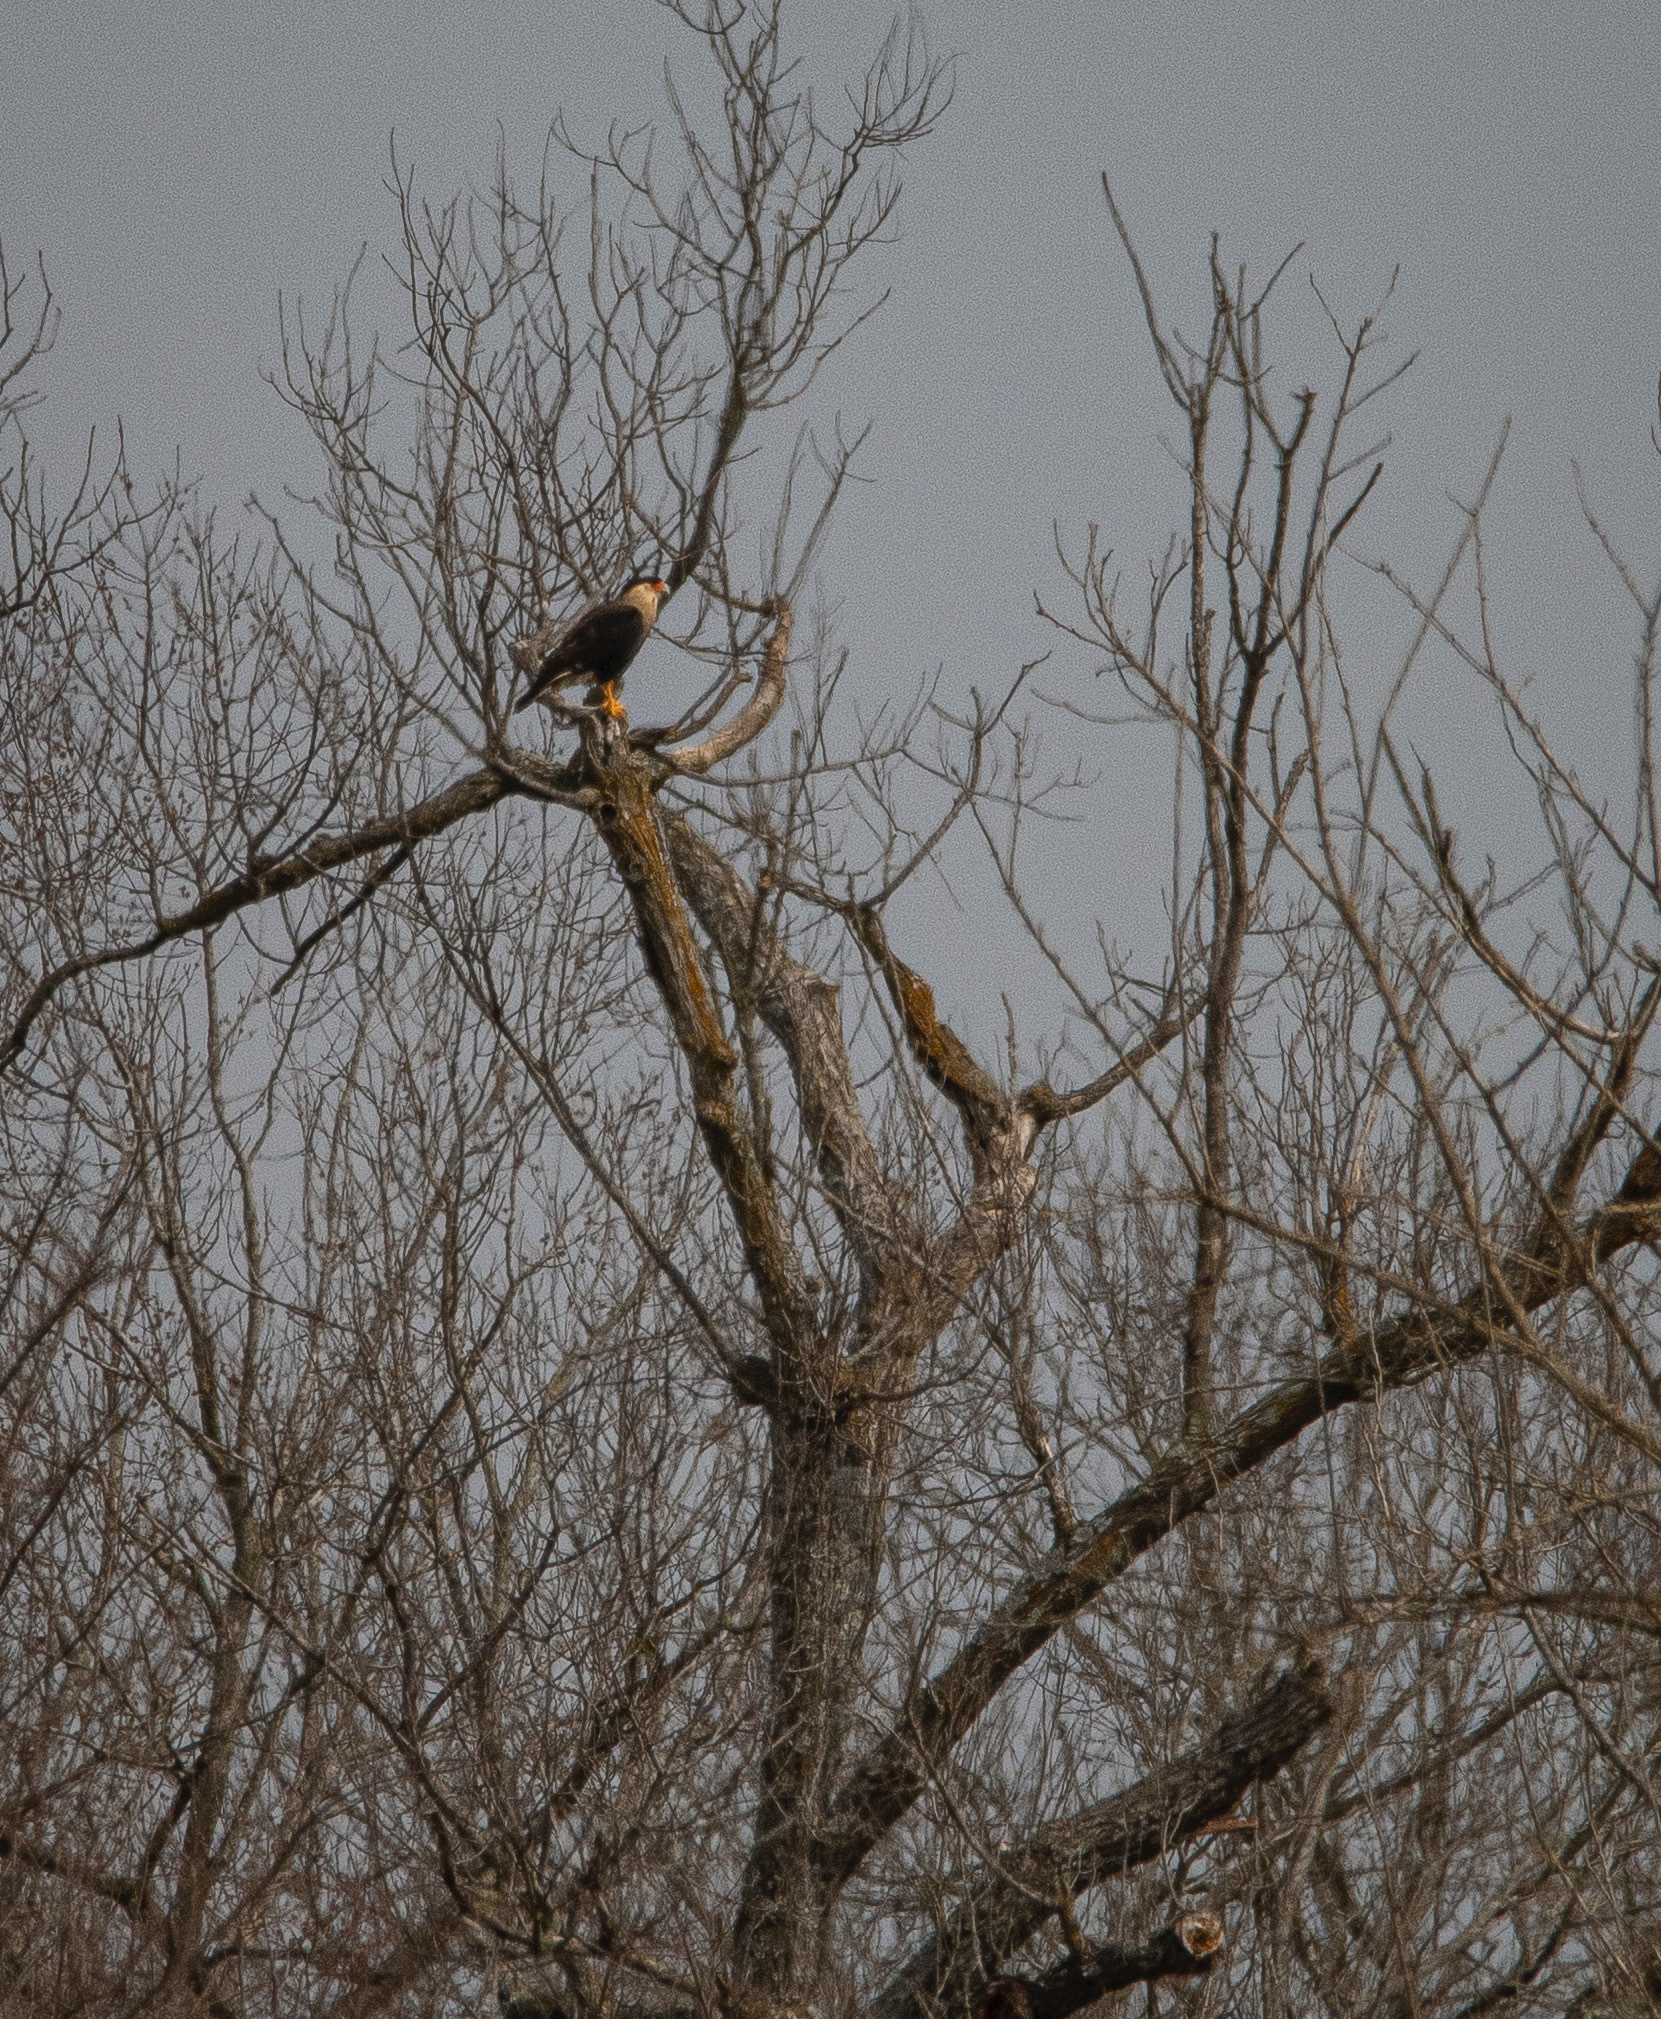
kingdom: Animalia
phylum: Chordata
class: Aves
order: Falconiformes
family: Falconidae
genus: Caracara
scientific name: Caracara plancus
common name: Southern caracara
